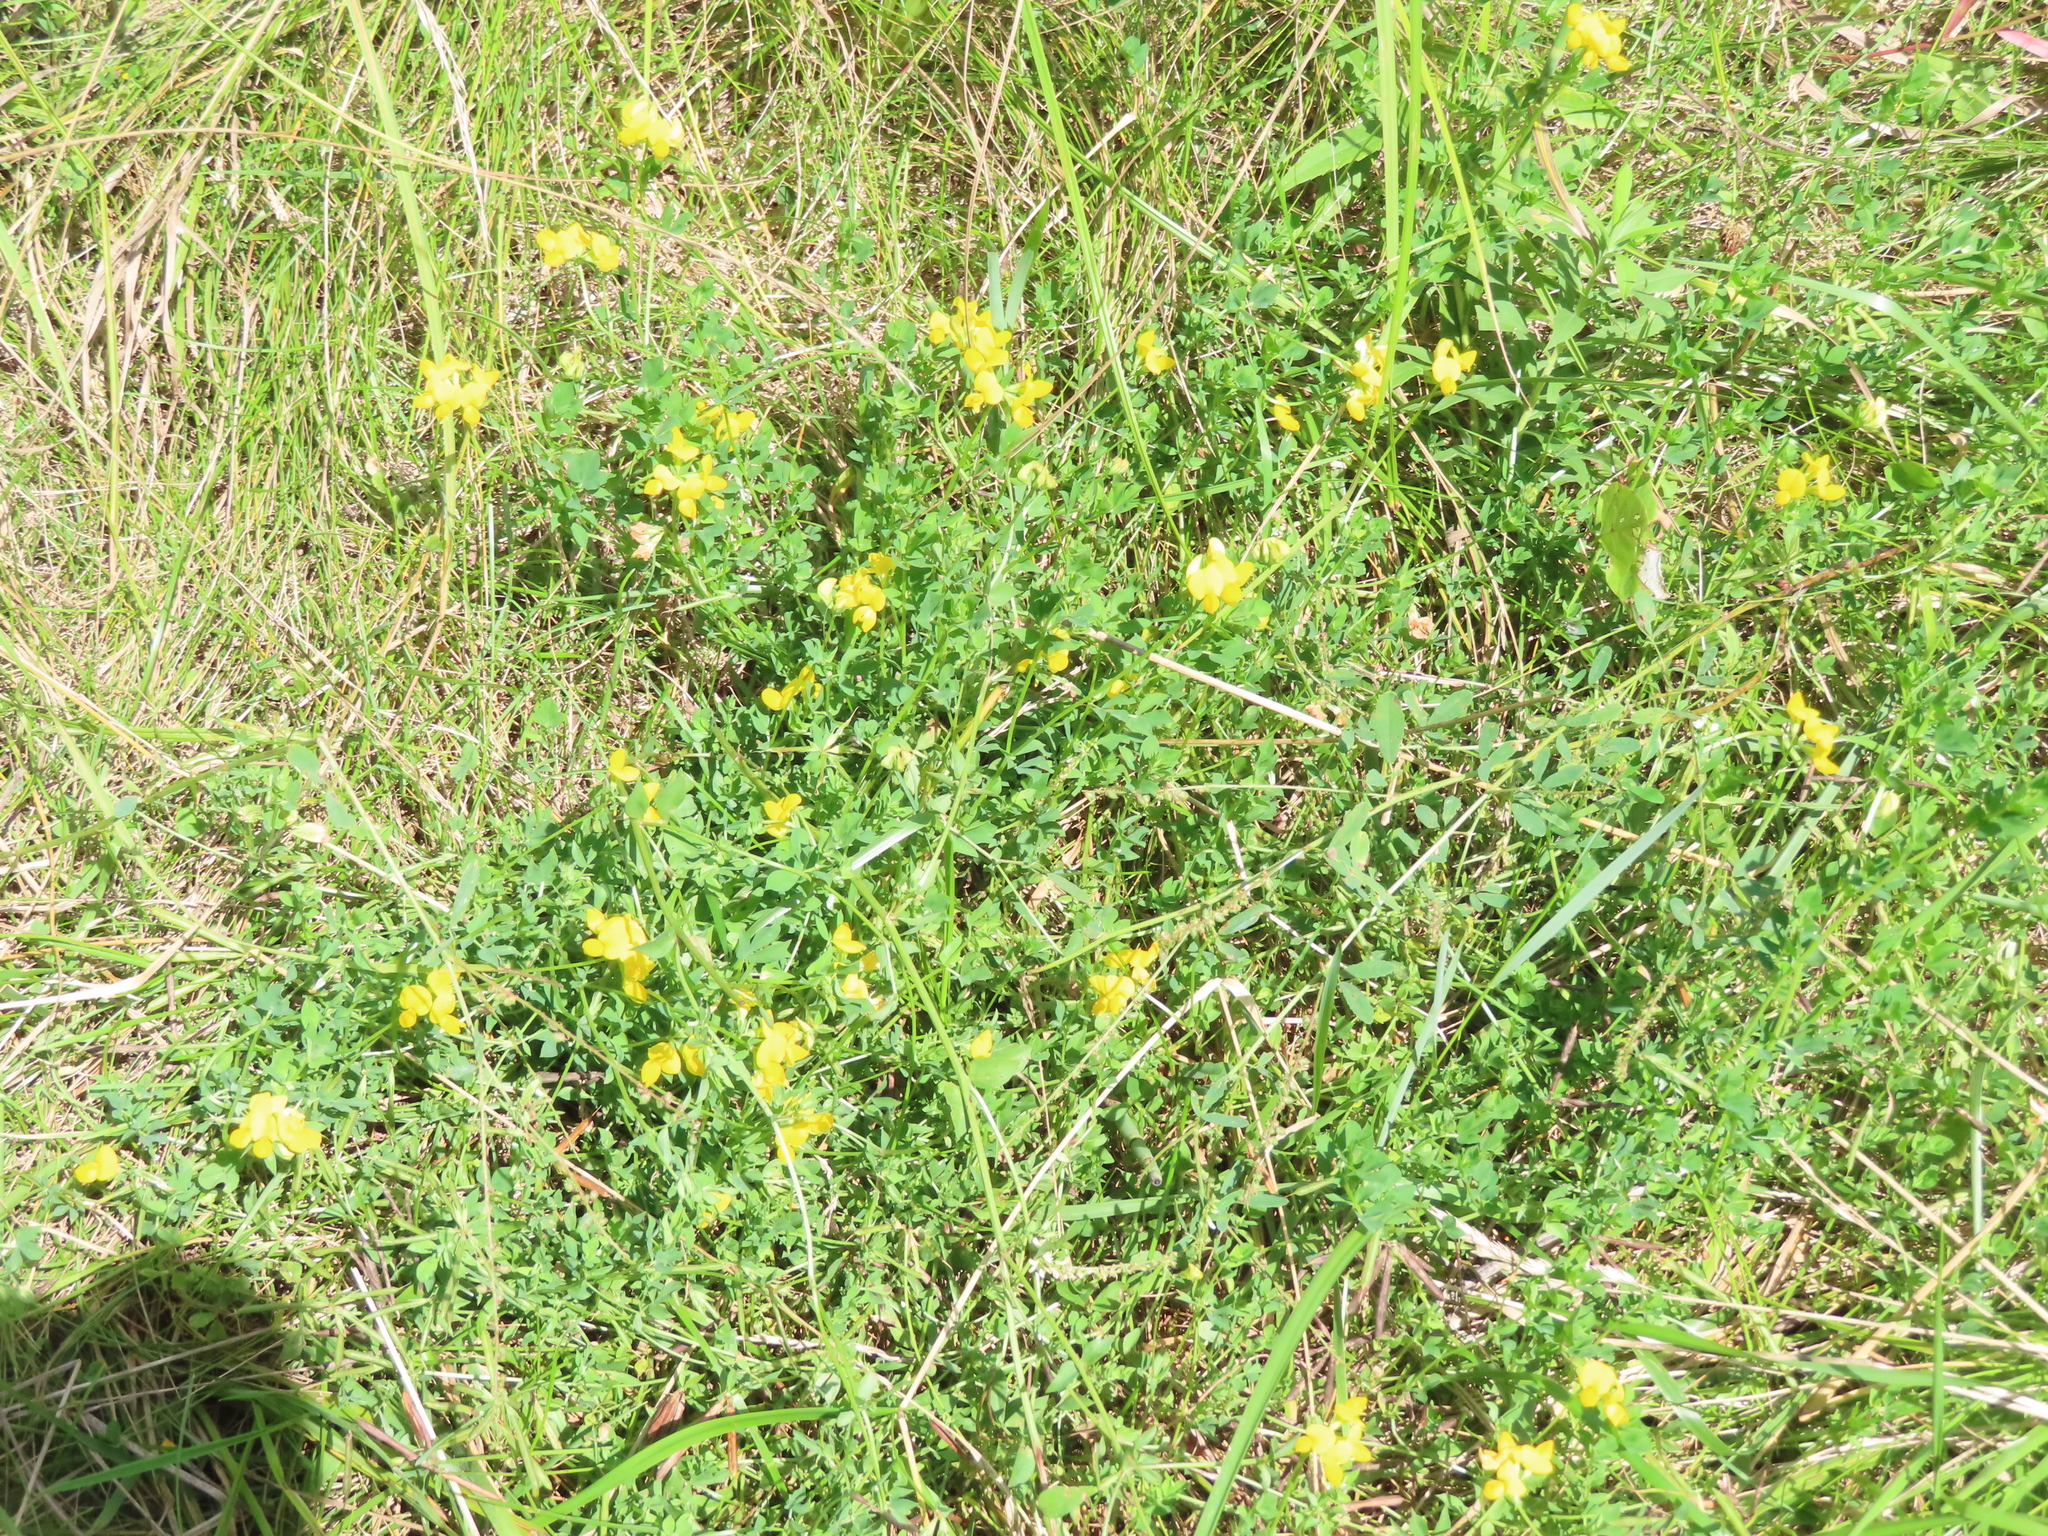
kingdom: Plantae
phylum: Tracheophyta
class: Magnoliopsida
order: Fabales
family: Fabaceae
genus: Lotus
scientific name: Lotus corniculatus
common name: Common bird's-foot-trefoil
